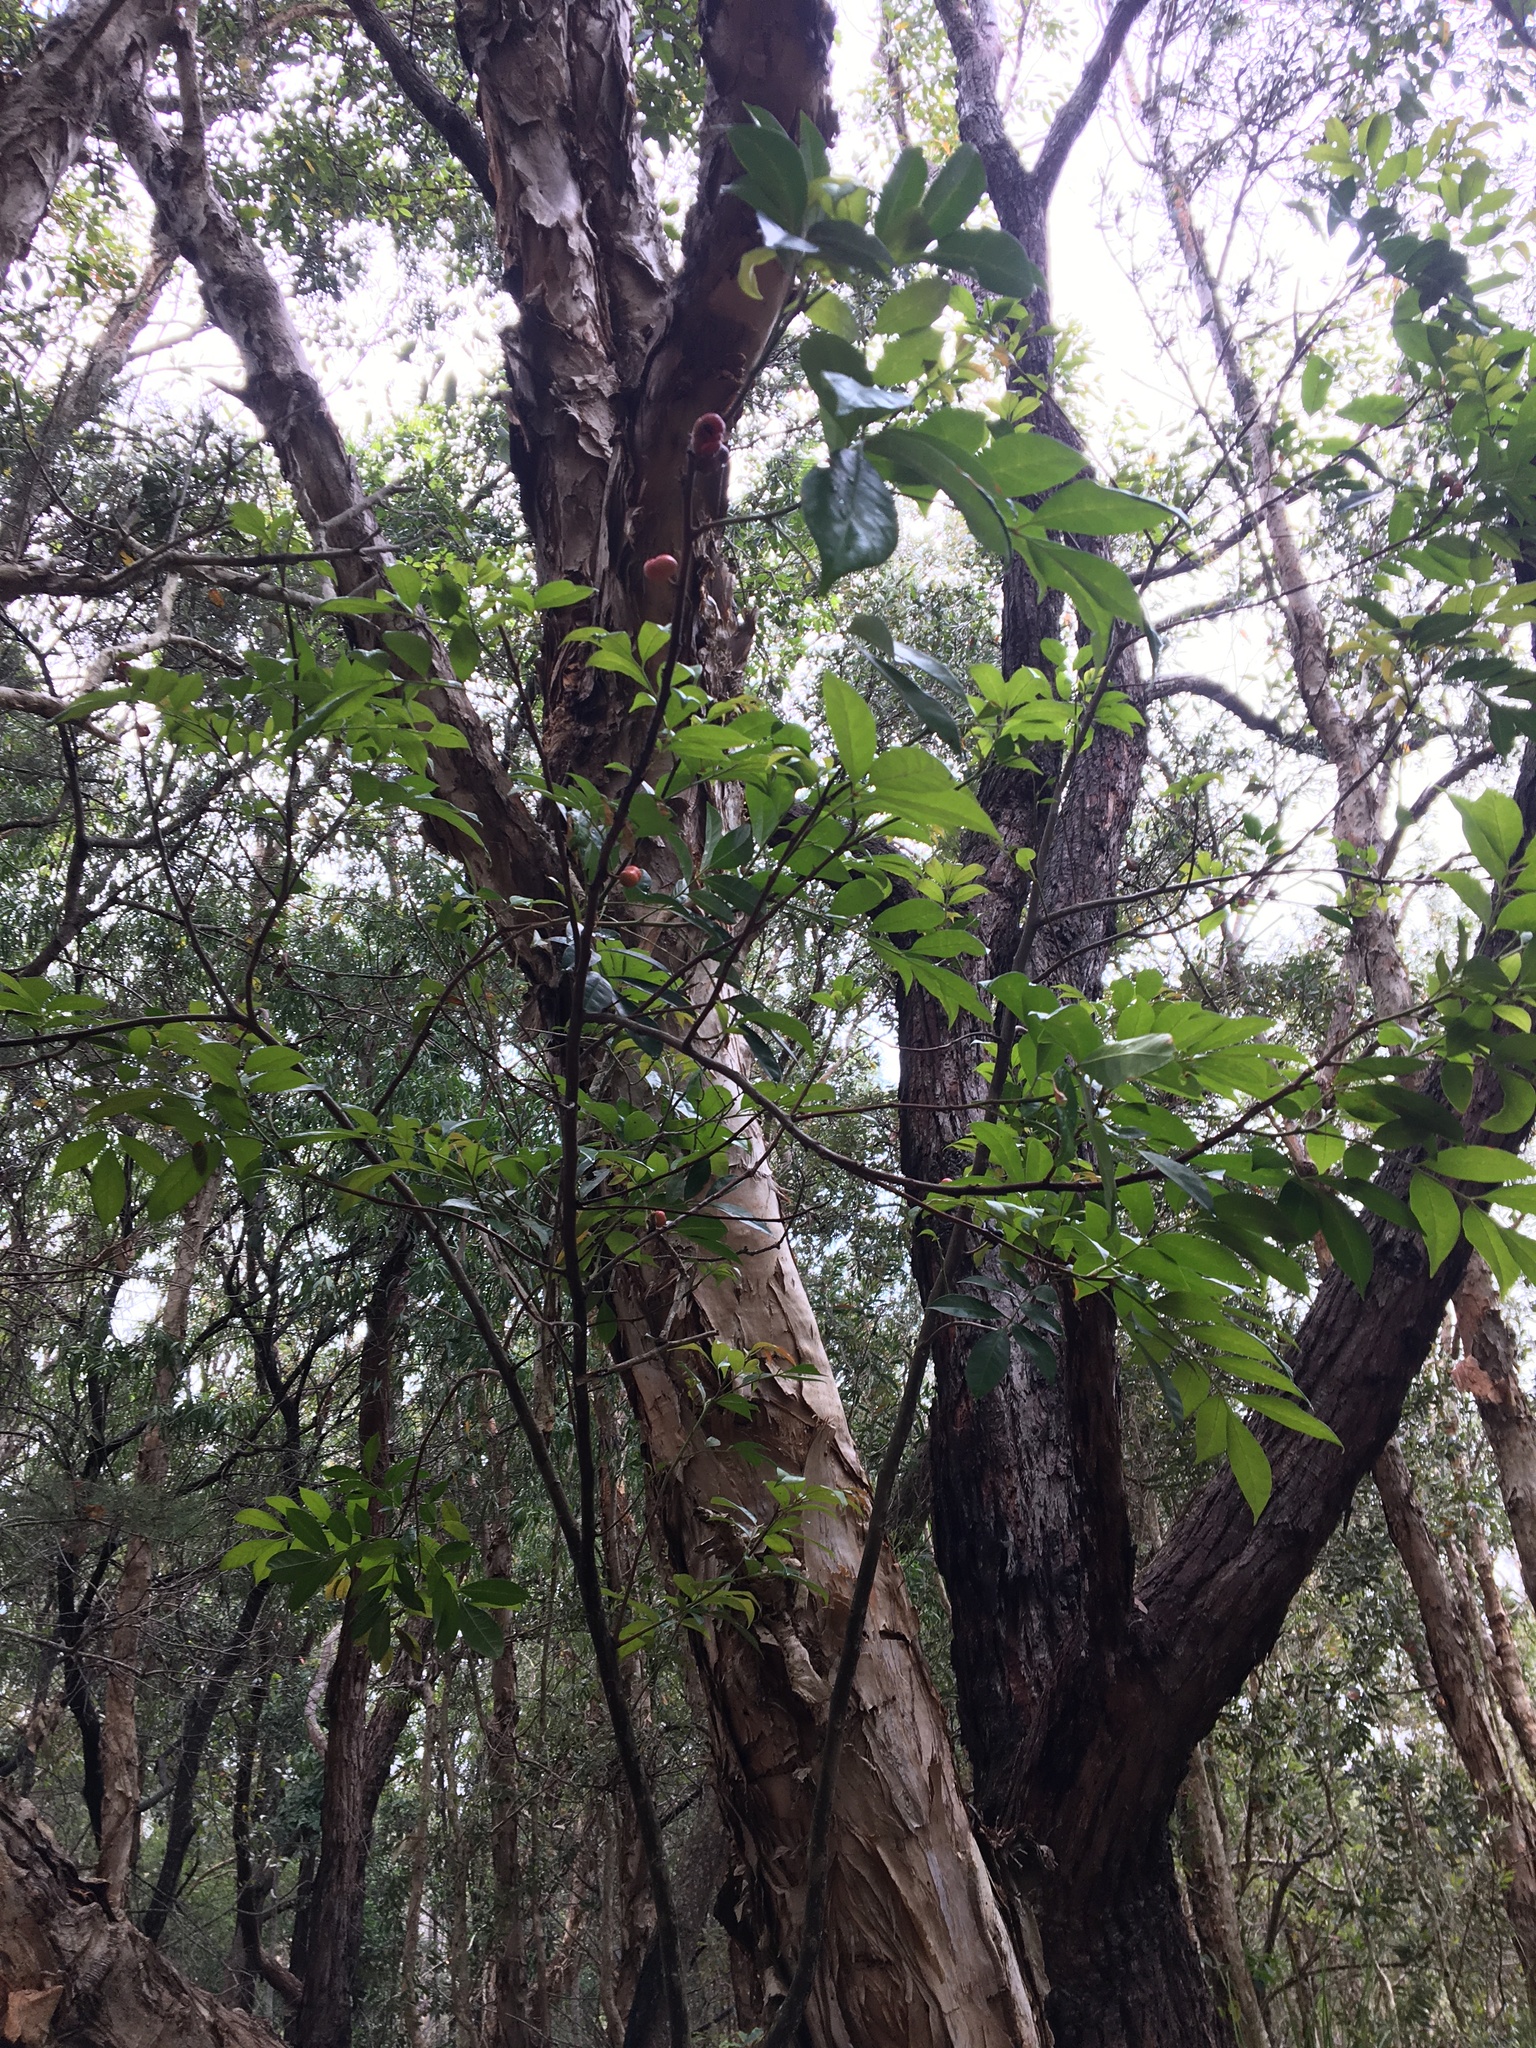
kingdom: Plantae
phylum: Tracheophyta
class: Magnoliopsida
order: Sapindales
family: Meliaceae
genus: Synoum
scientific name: Synoum glandulosum
